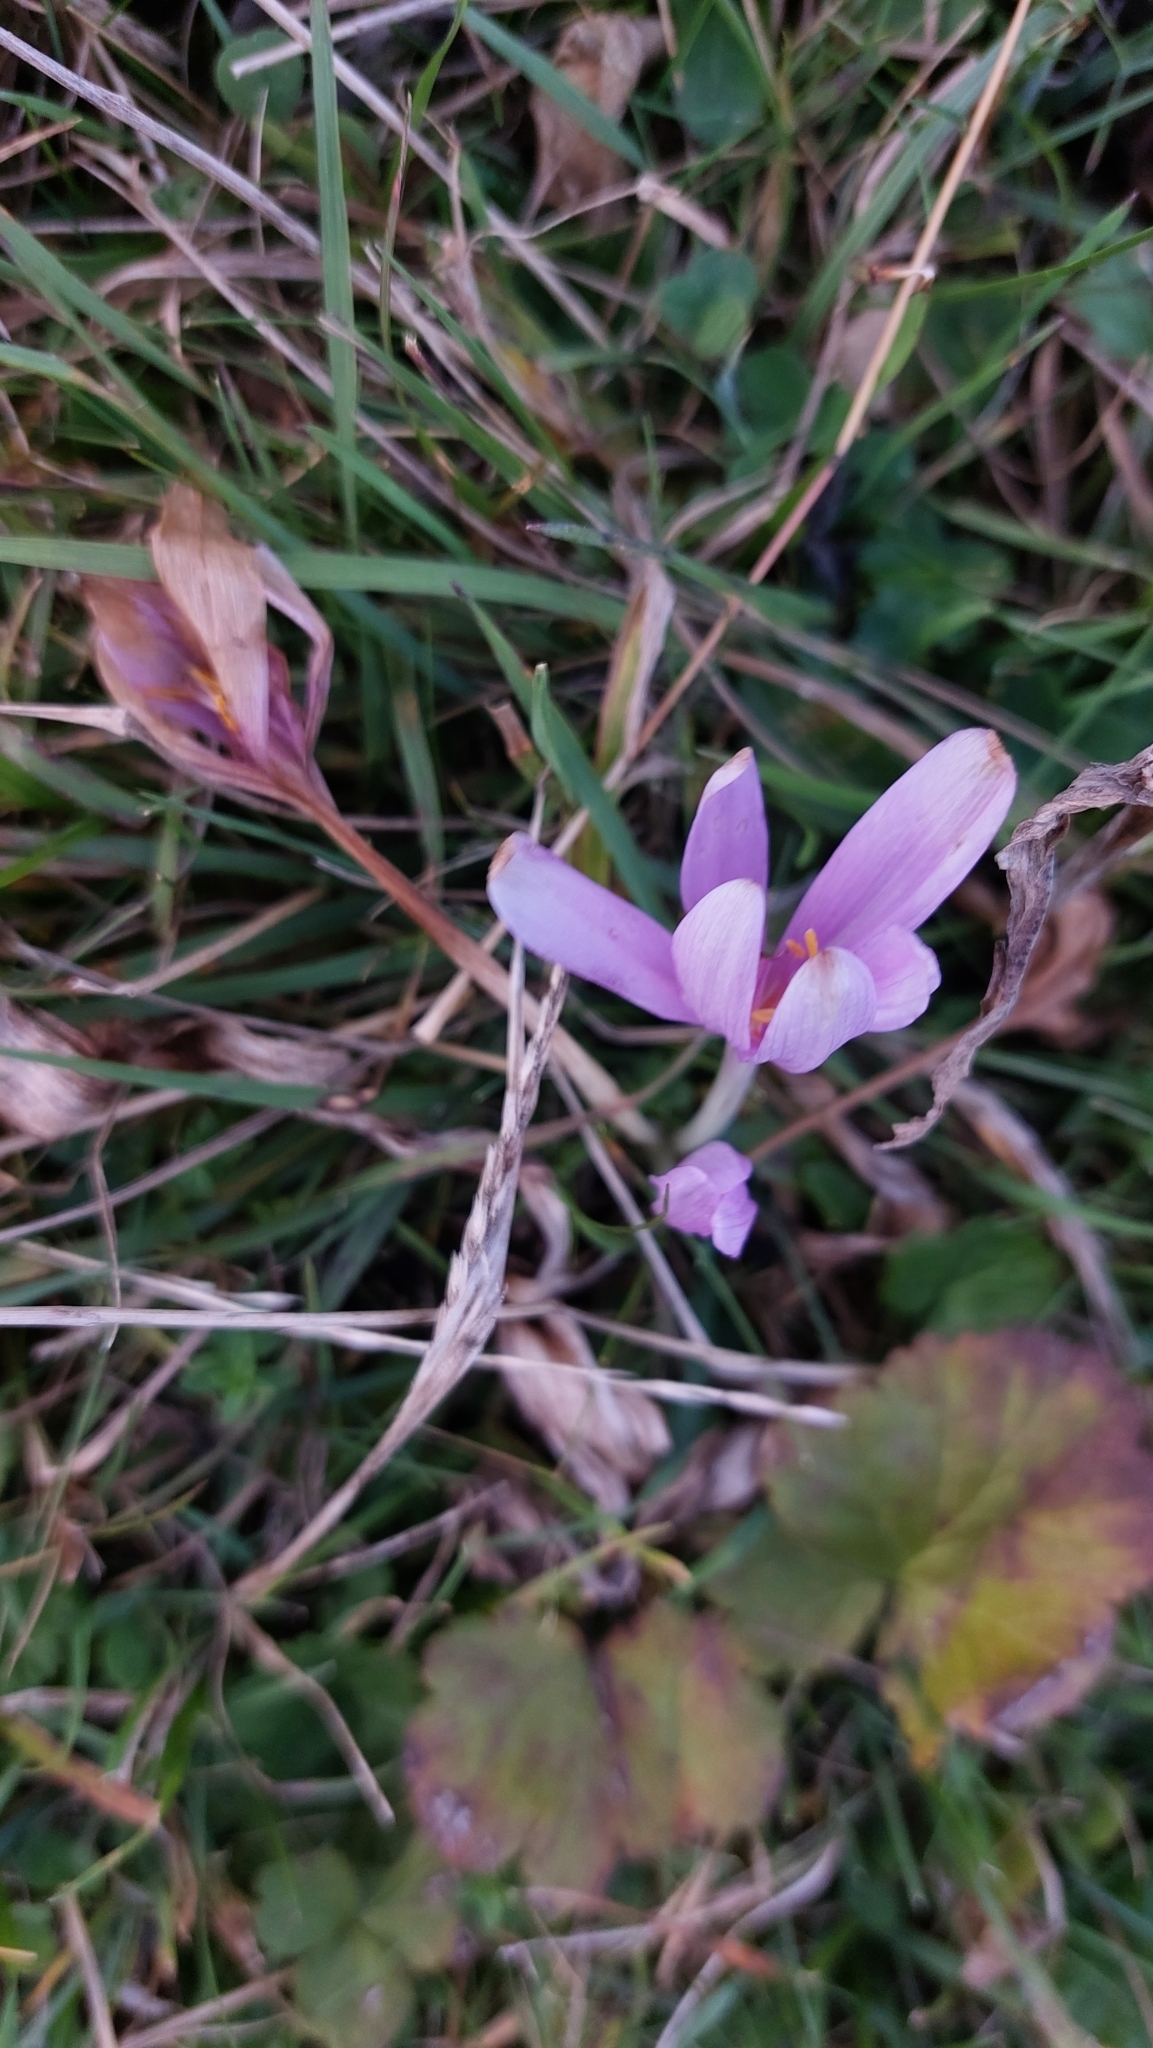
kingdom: Plantae
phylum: Tracheophyta
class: Liliopsida
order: Liliales
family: Colchicaceae
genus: Colchicum
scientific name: Colchicum autumnale
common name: Autumn crocus
